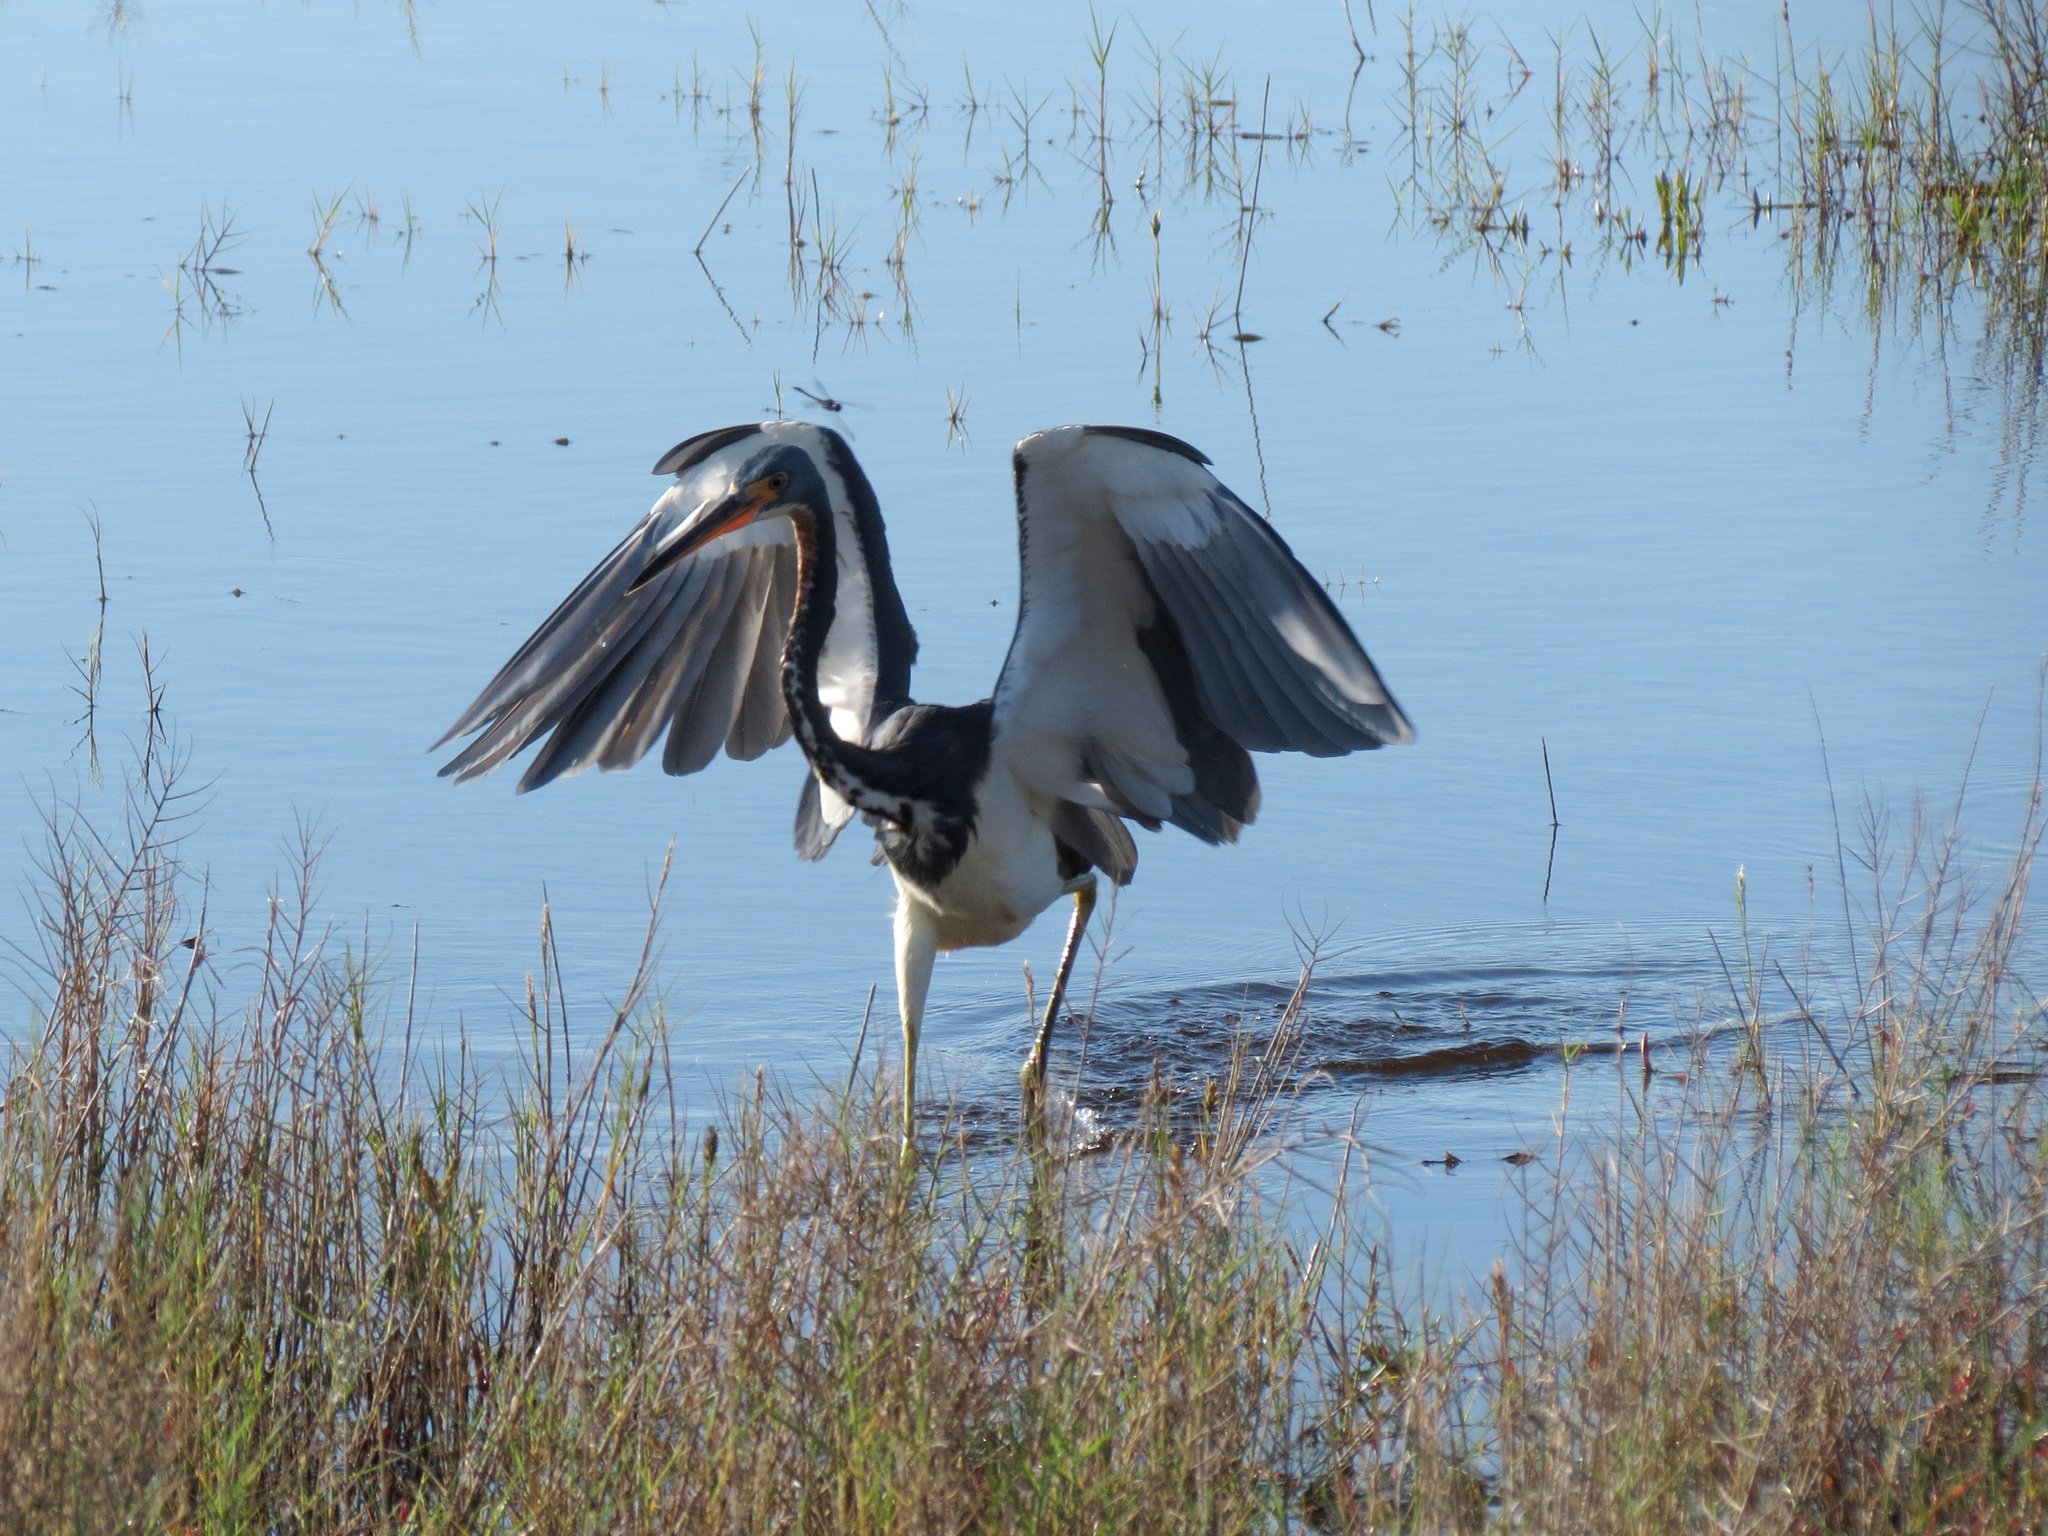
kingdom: Animalia
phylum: Chordata
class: Aves
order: Pelecaniformes
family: Ardeidae
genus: Egretta
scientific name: Egretta tricolor
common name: Tricolored heron
